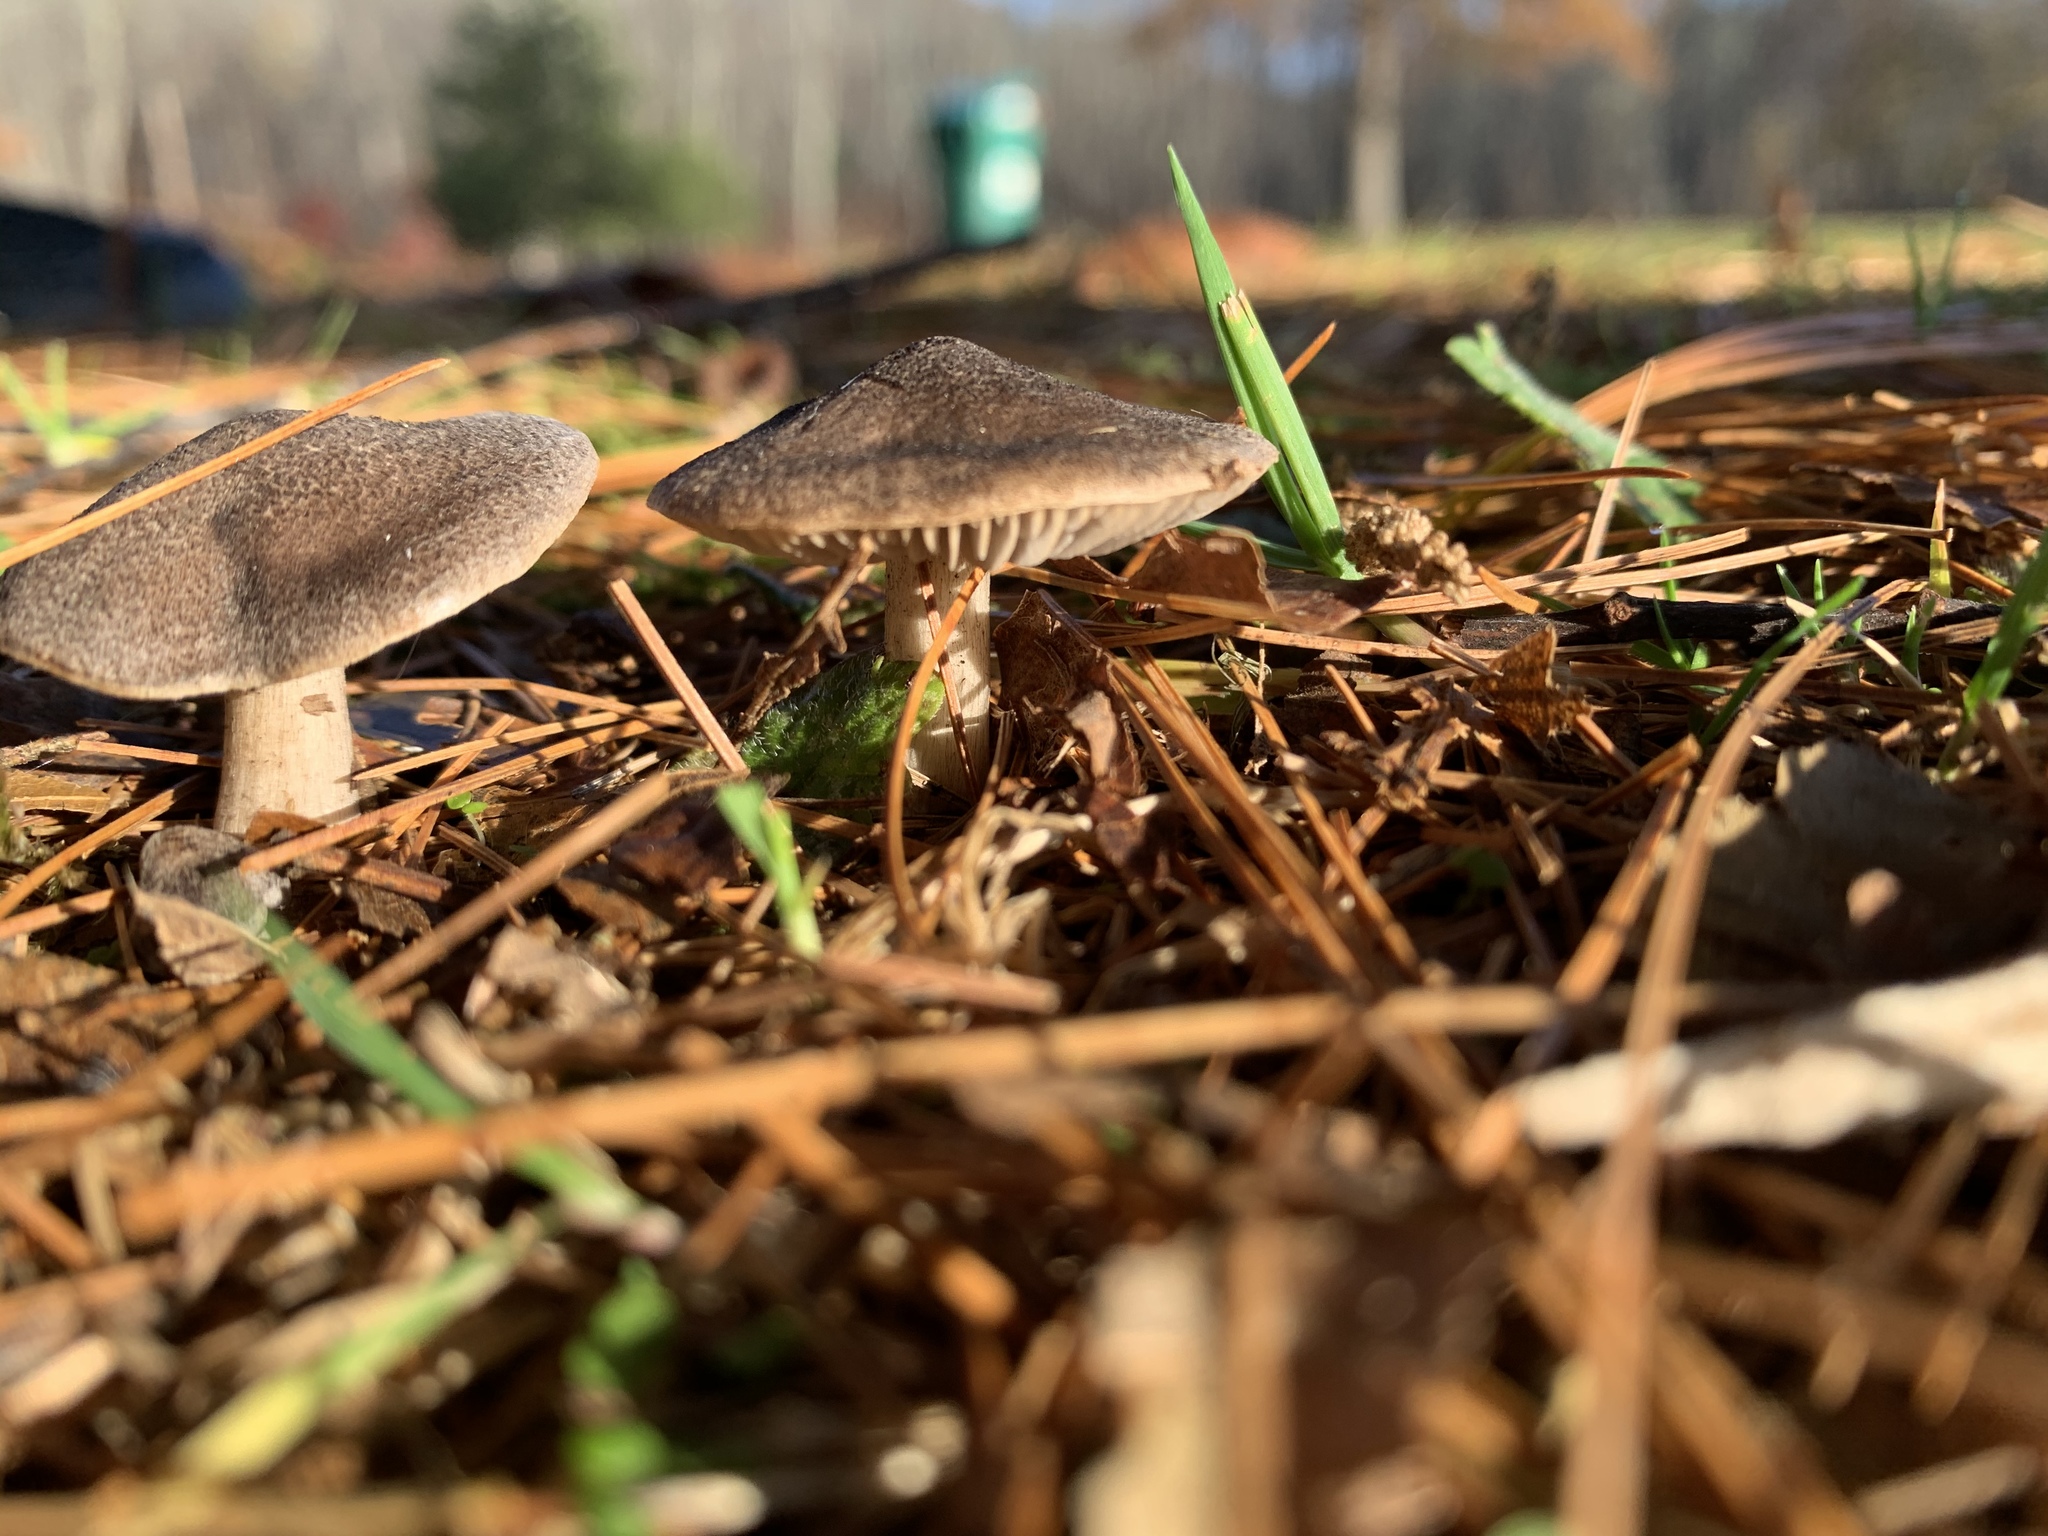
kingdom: Fungi
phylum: Basidiomycota
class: Agaricomycetes
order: Agaricales
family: Tricholomataceae
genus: Tricholoma
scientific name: Tricholoma terreum
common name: Grey knight
